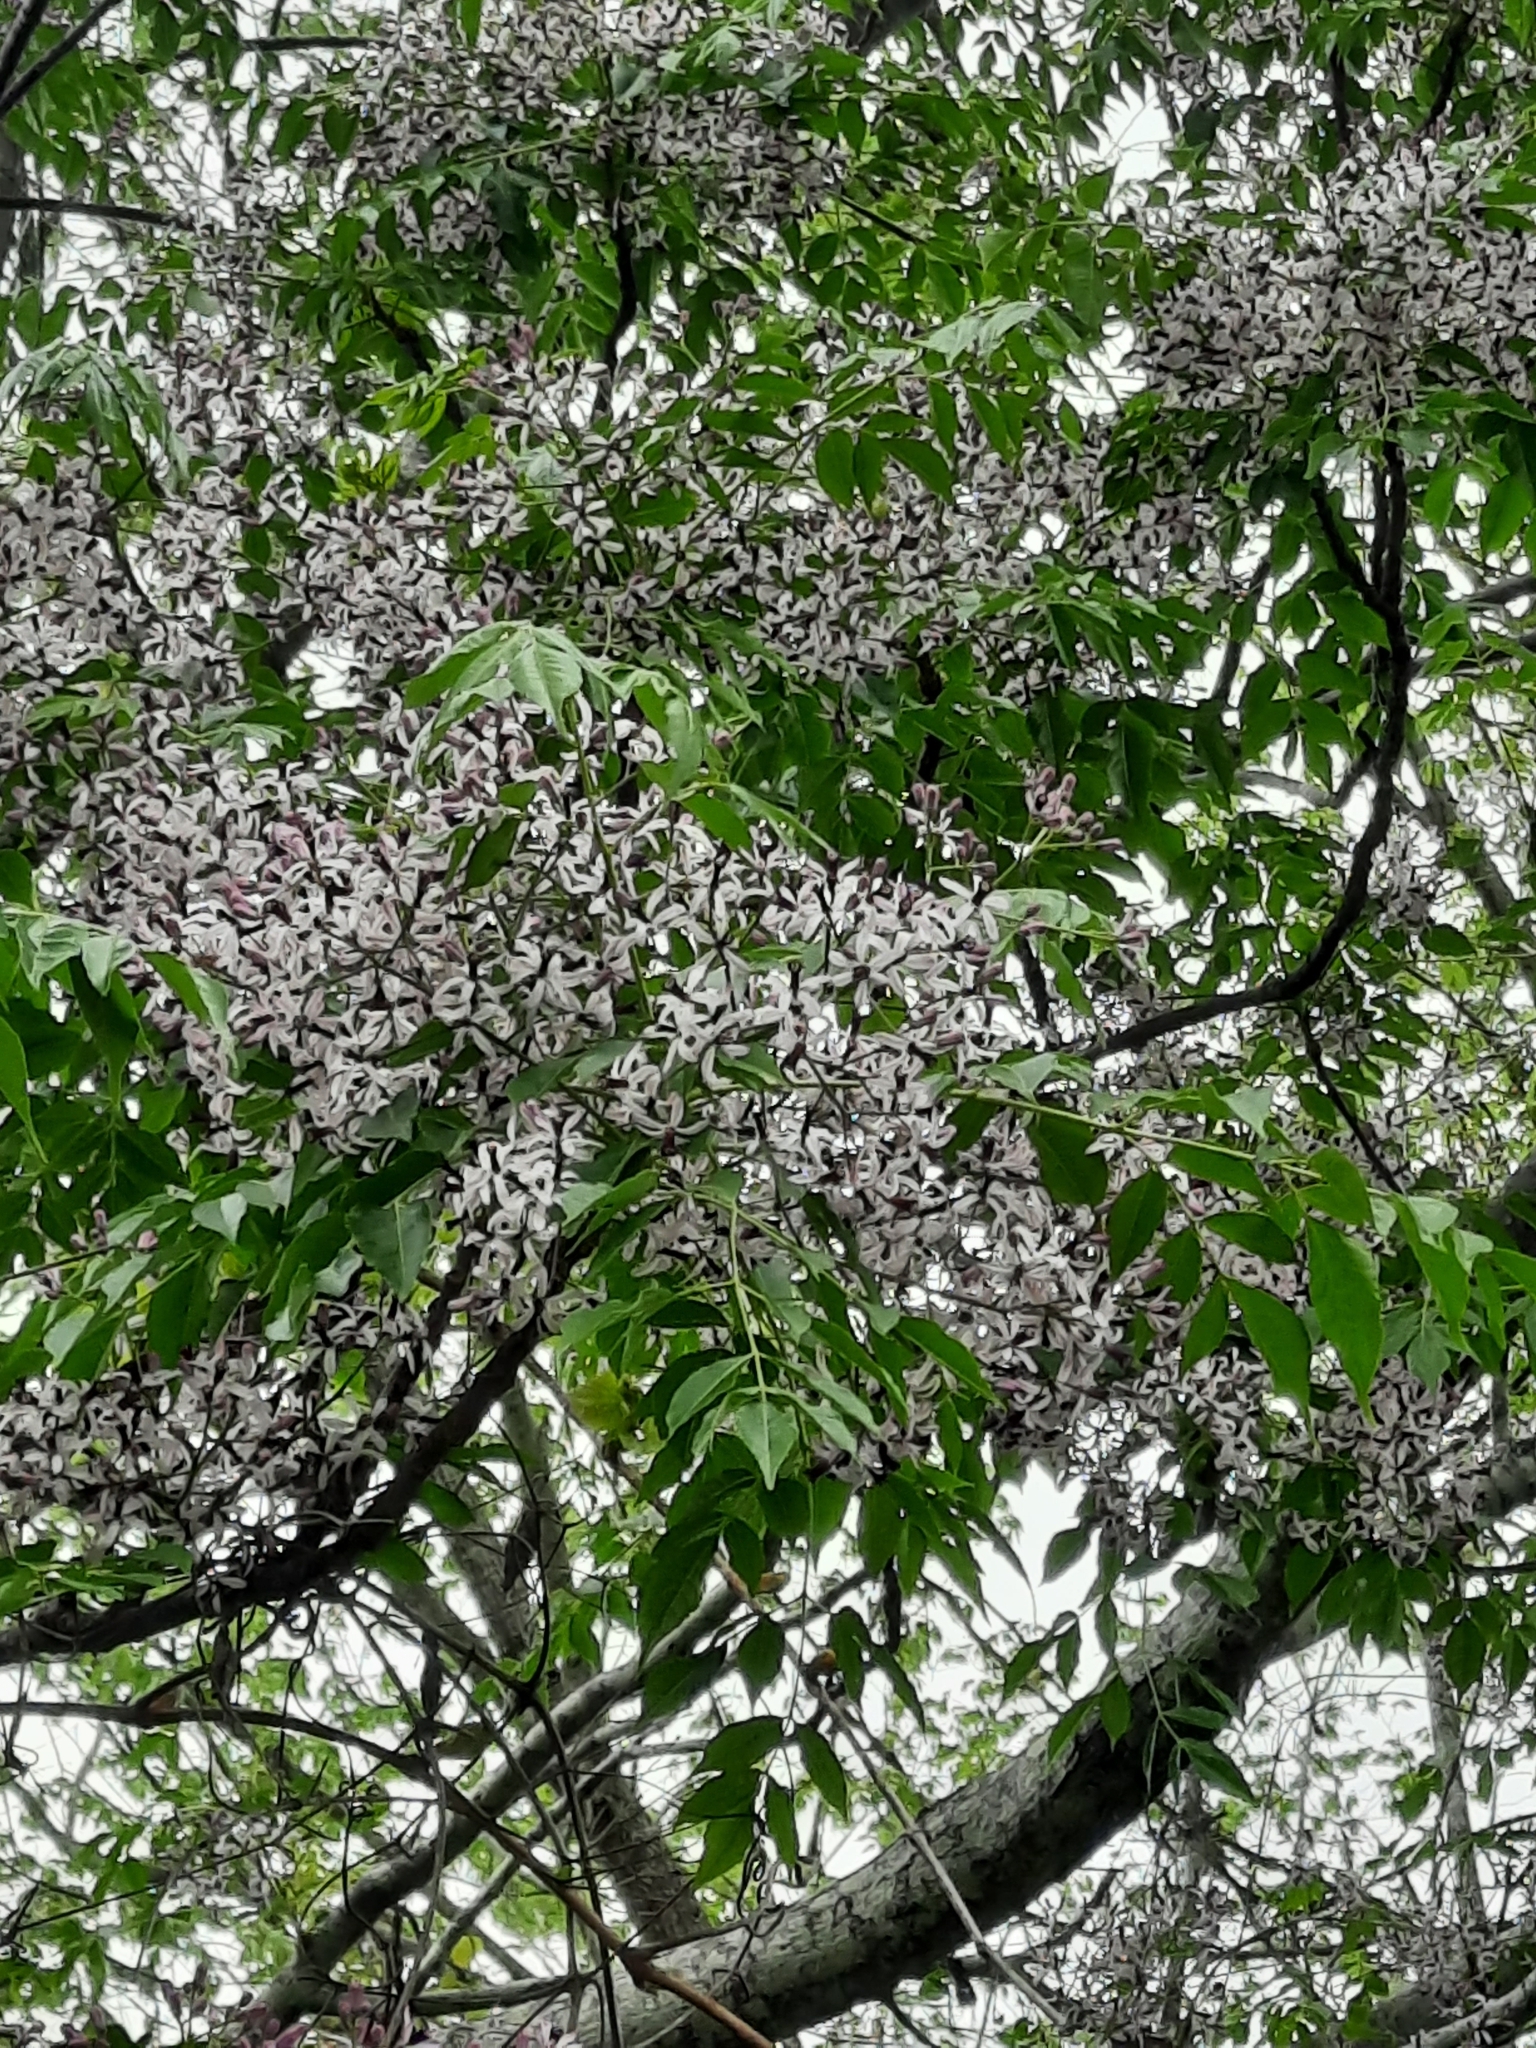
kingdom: Plantae
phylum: Tracheophyta
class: Magnoliopsida
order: Sapindales
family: Meliaceae
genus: Melia
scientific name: Melia azedarach
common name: Chinaberrytree
